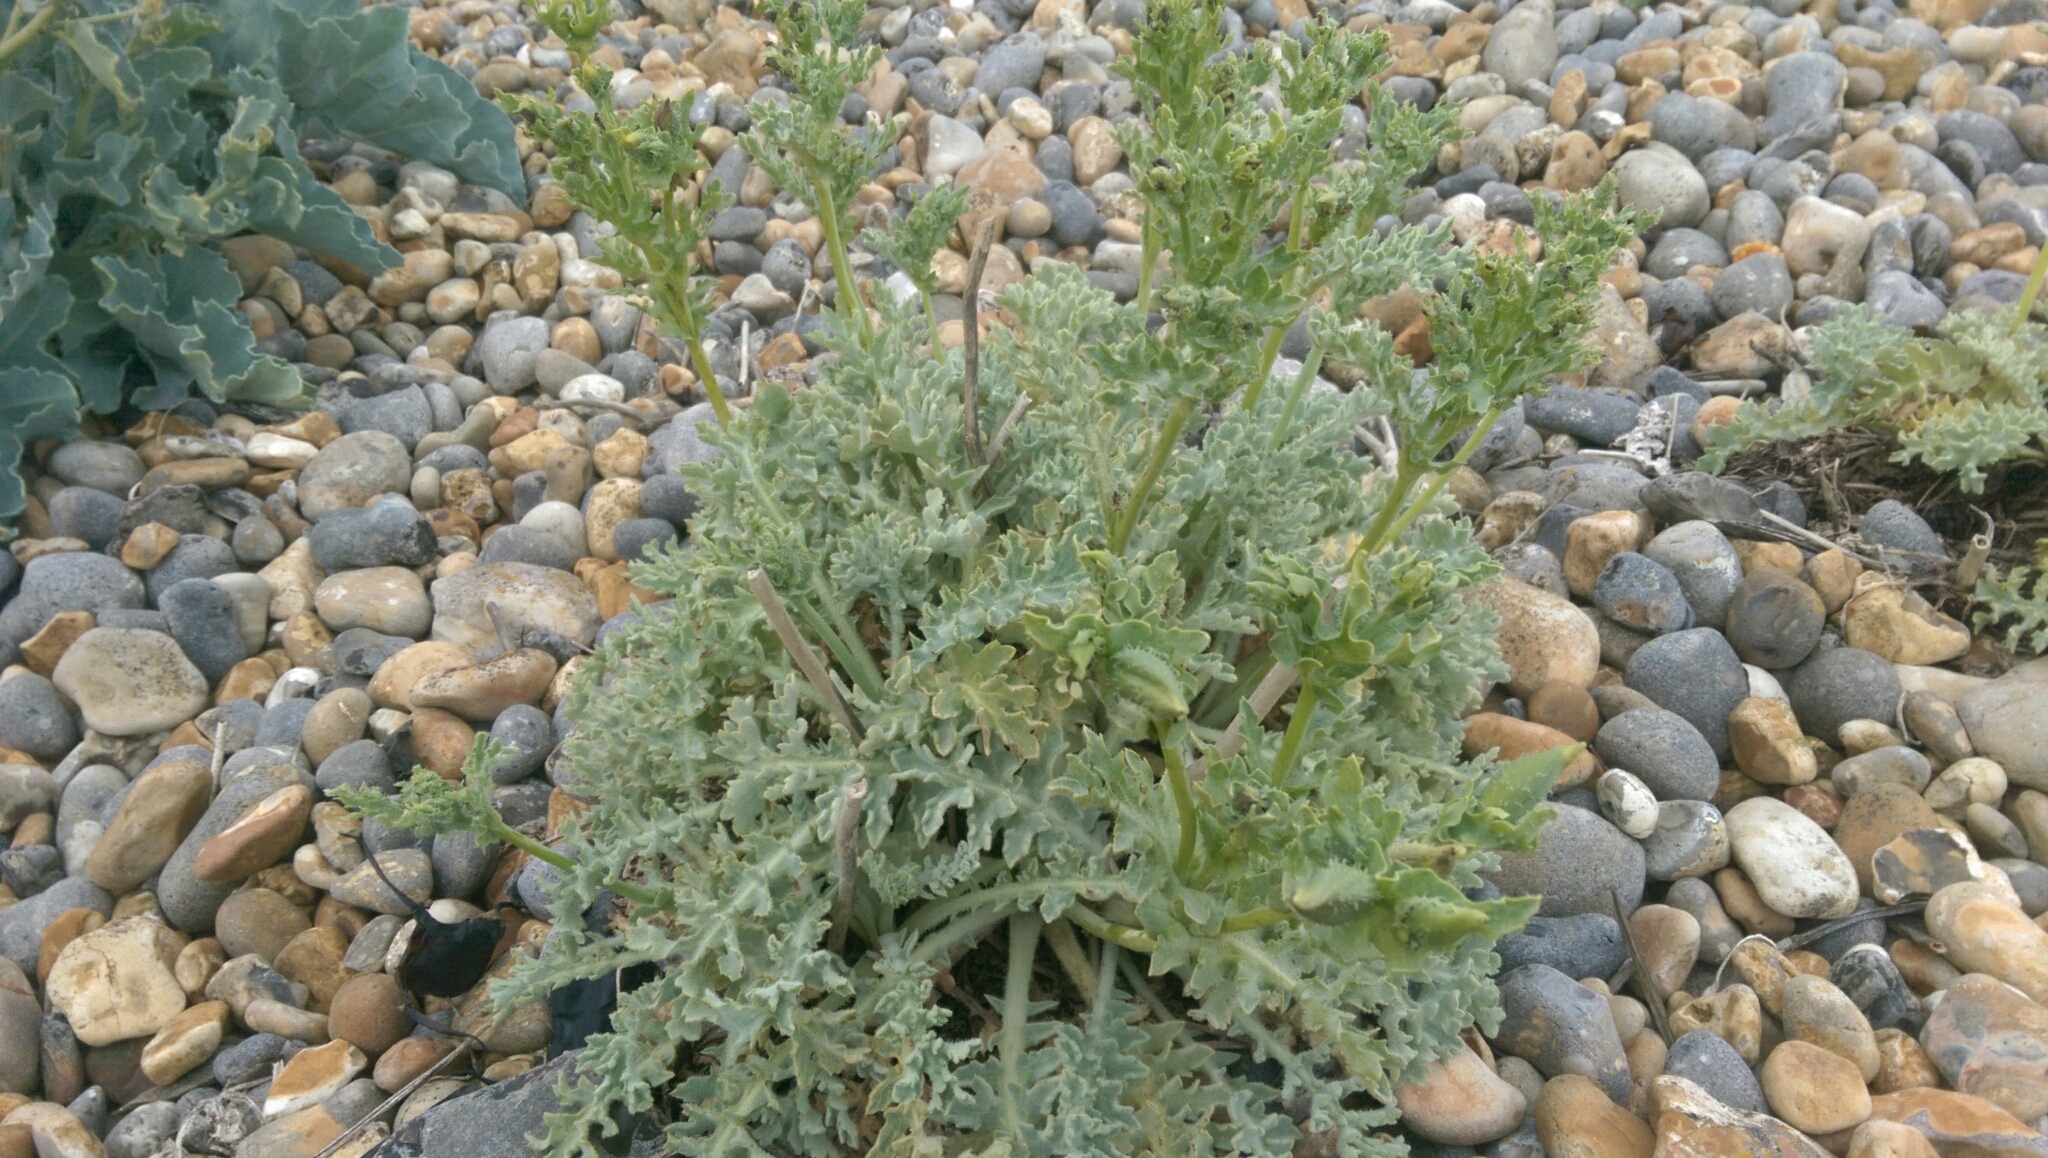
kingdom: Plantae
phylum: Tracheophyta
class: Magnoliopsida
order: Ranunculales
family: Papaveraceae
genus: Glaucium
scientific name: Glaucium flavum
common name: Yellow horned-poppy
